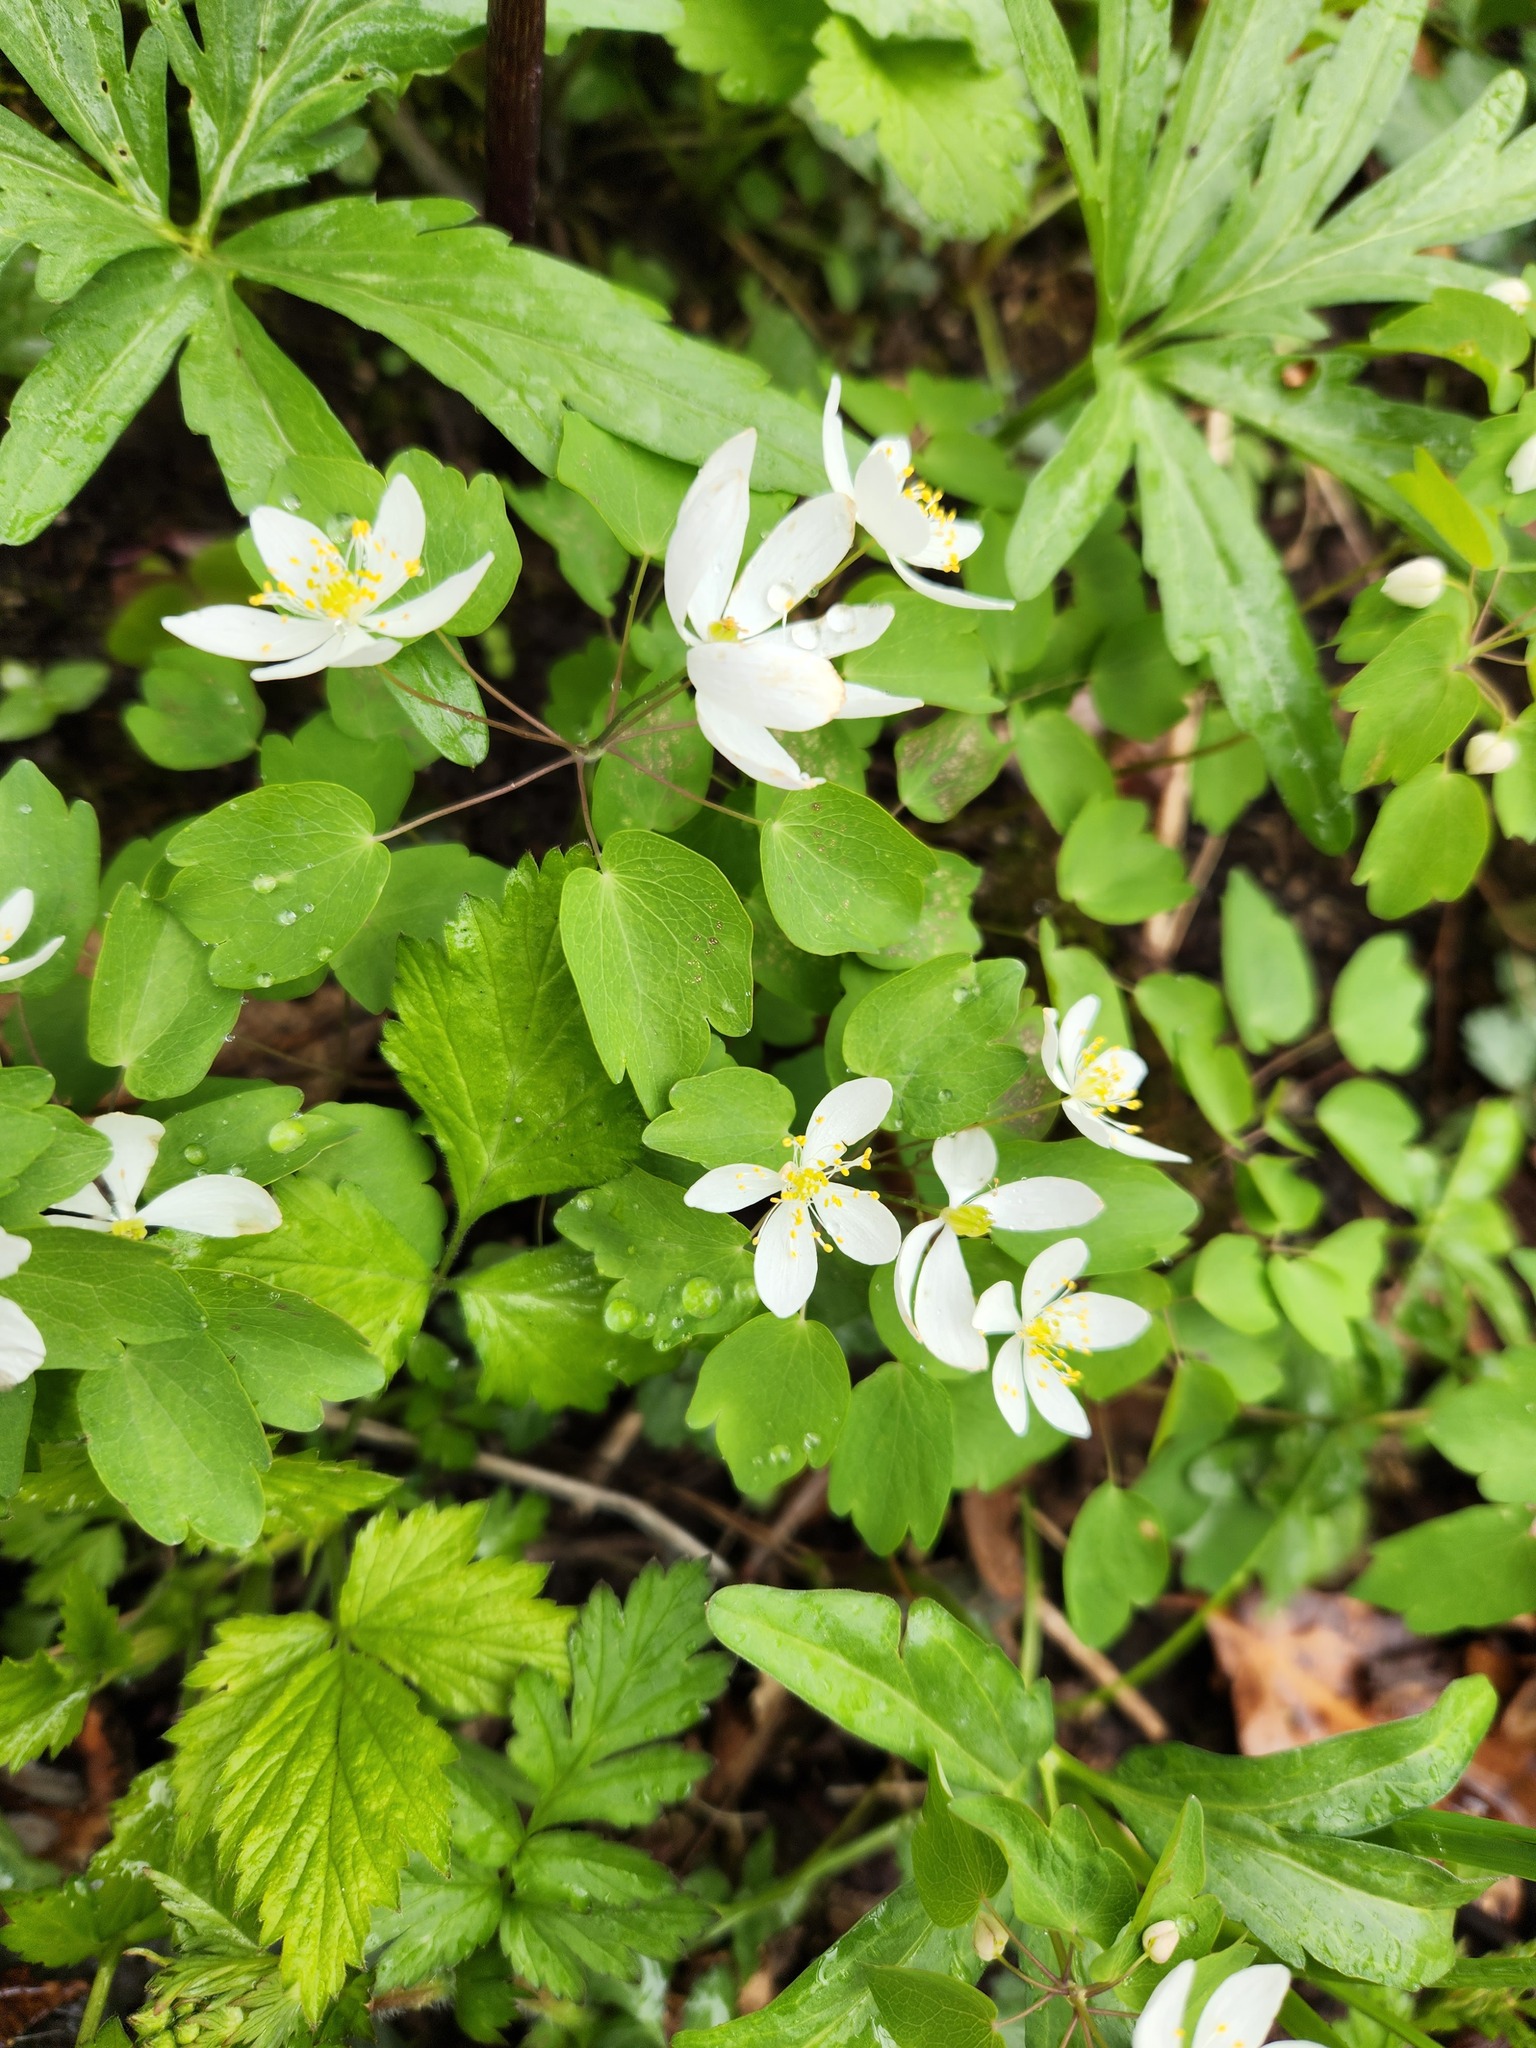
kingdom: Plantae
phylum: Tracheophyta
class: Magnoliopsida
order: Ranunculales
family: Ranunculaceae
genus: Thalictrum
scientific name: Thalictrum thalictroides
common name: Rue-anemone
